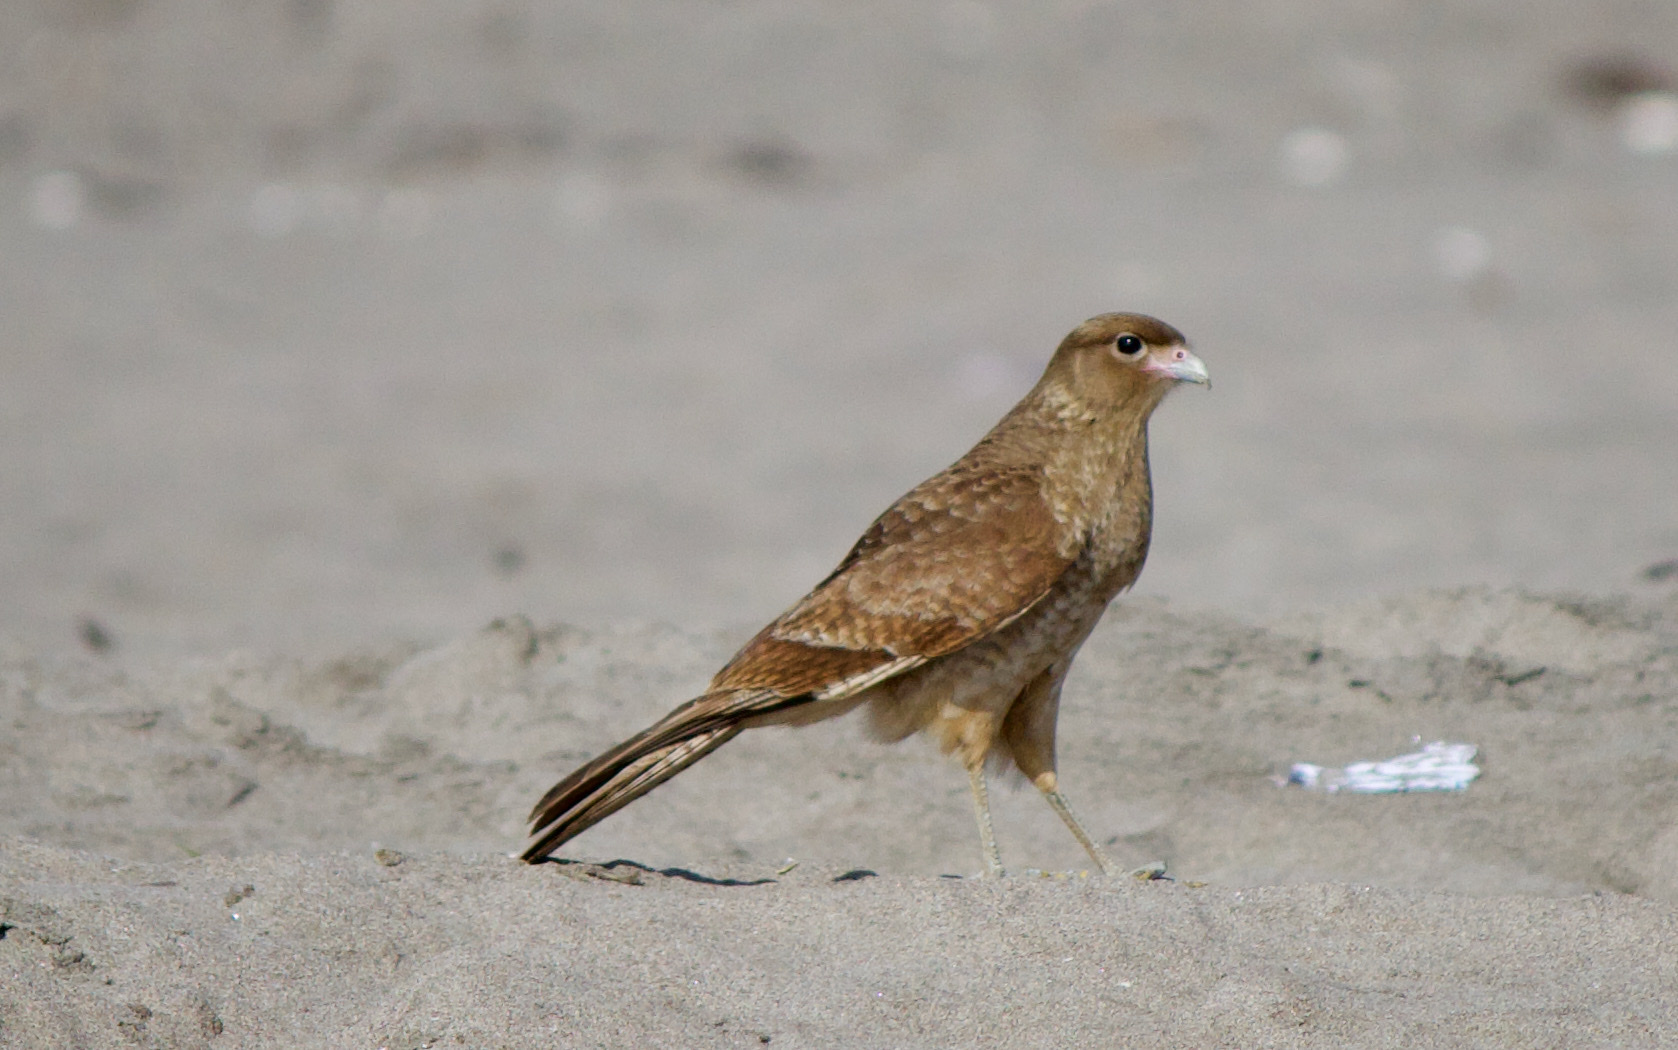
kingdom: Animalia
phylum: Chordata
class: Aves
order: Falconiformes
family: Falconidae
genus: Daptrius
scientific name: Daptrius
